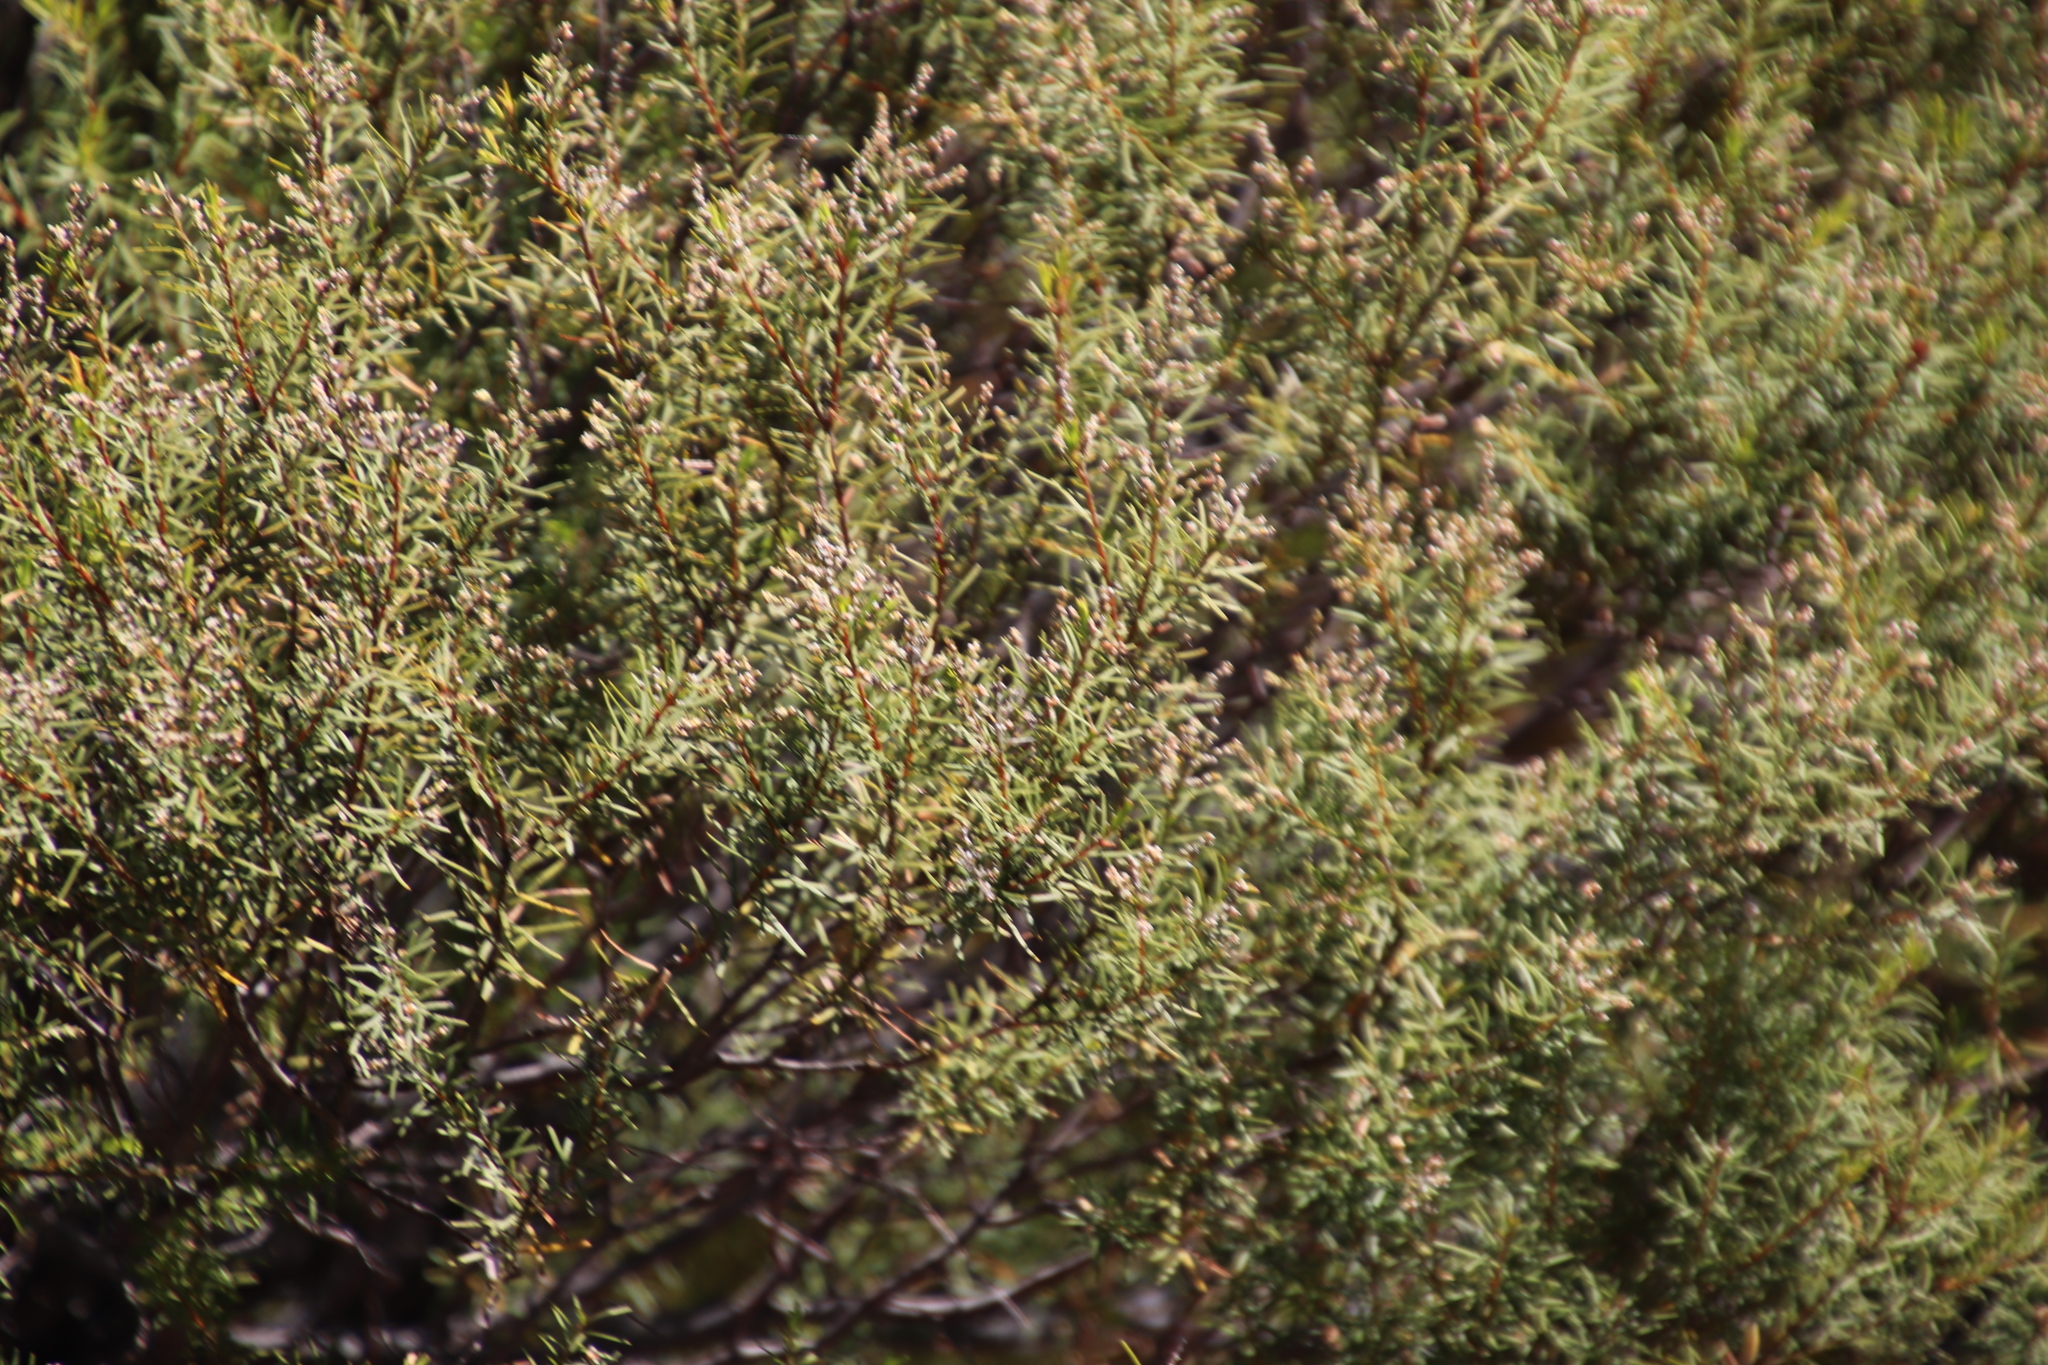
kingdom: Plantae
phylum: Tracheophyta
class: Magnoliopsida
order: Bruniales
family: Bruniaceae
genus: Brunia
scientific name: Brunia africana
